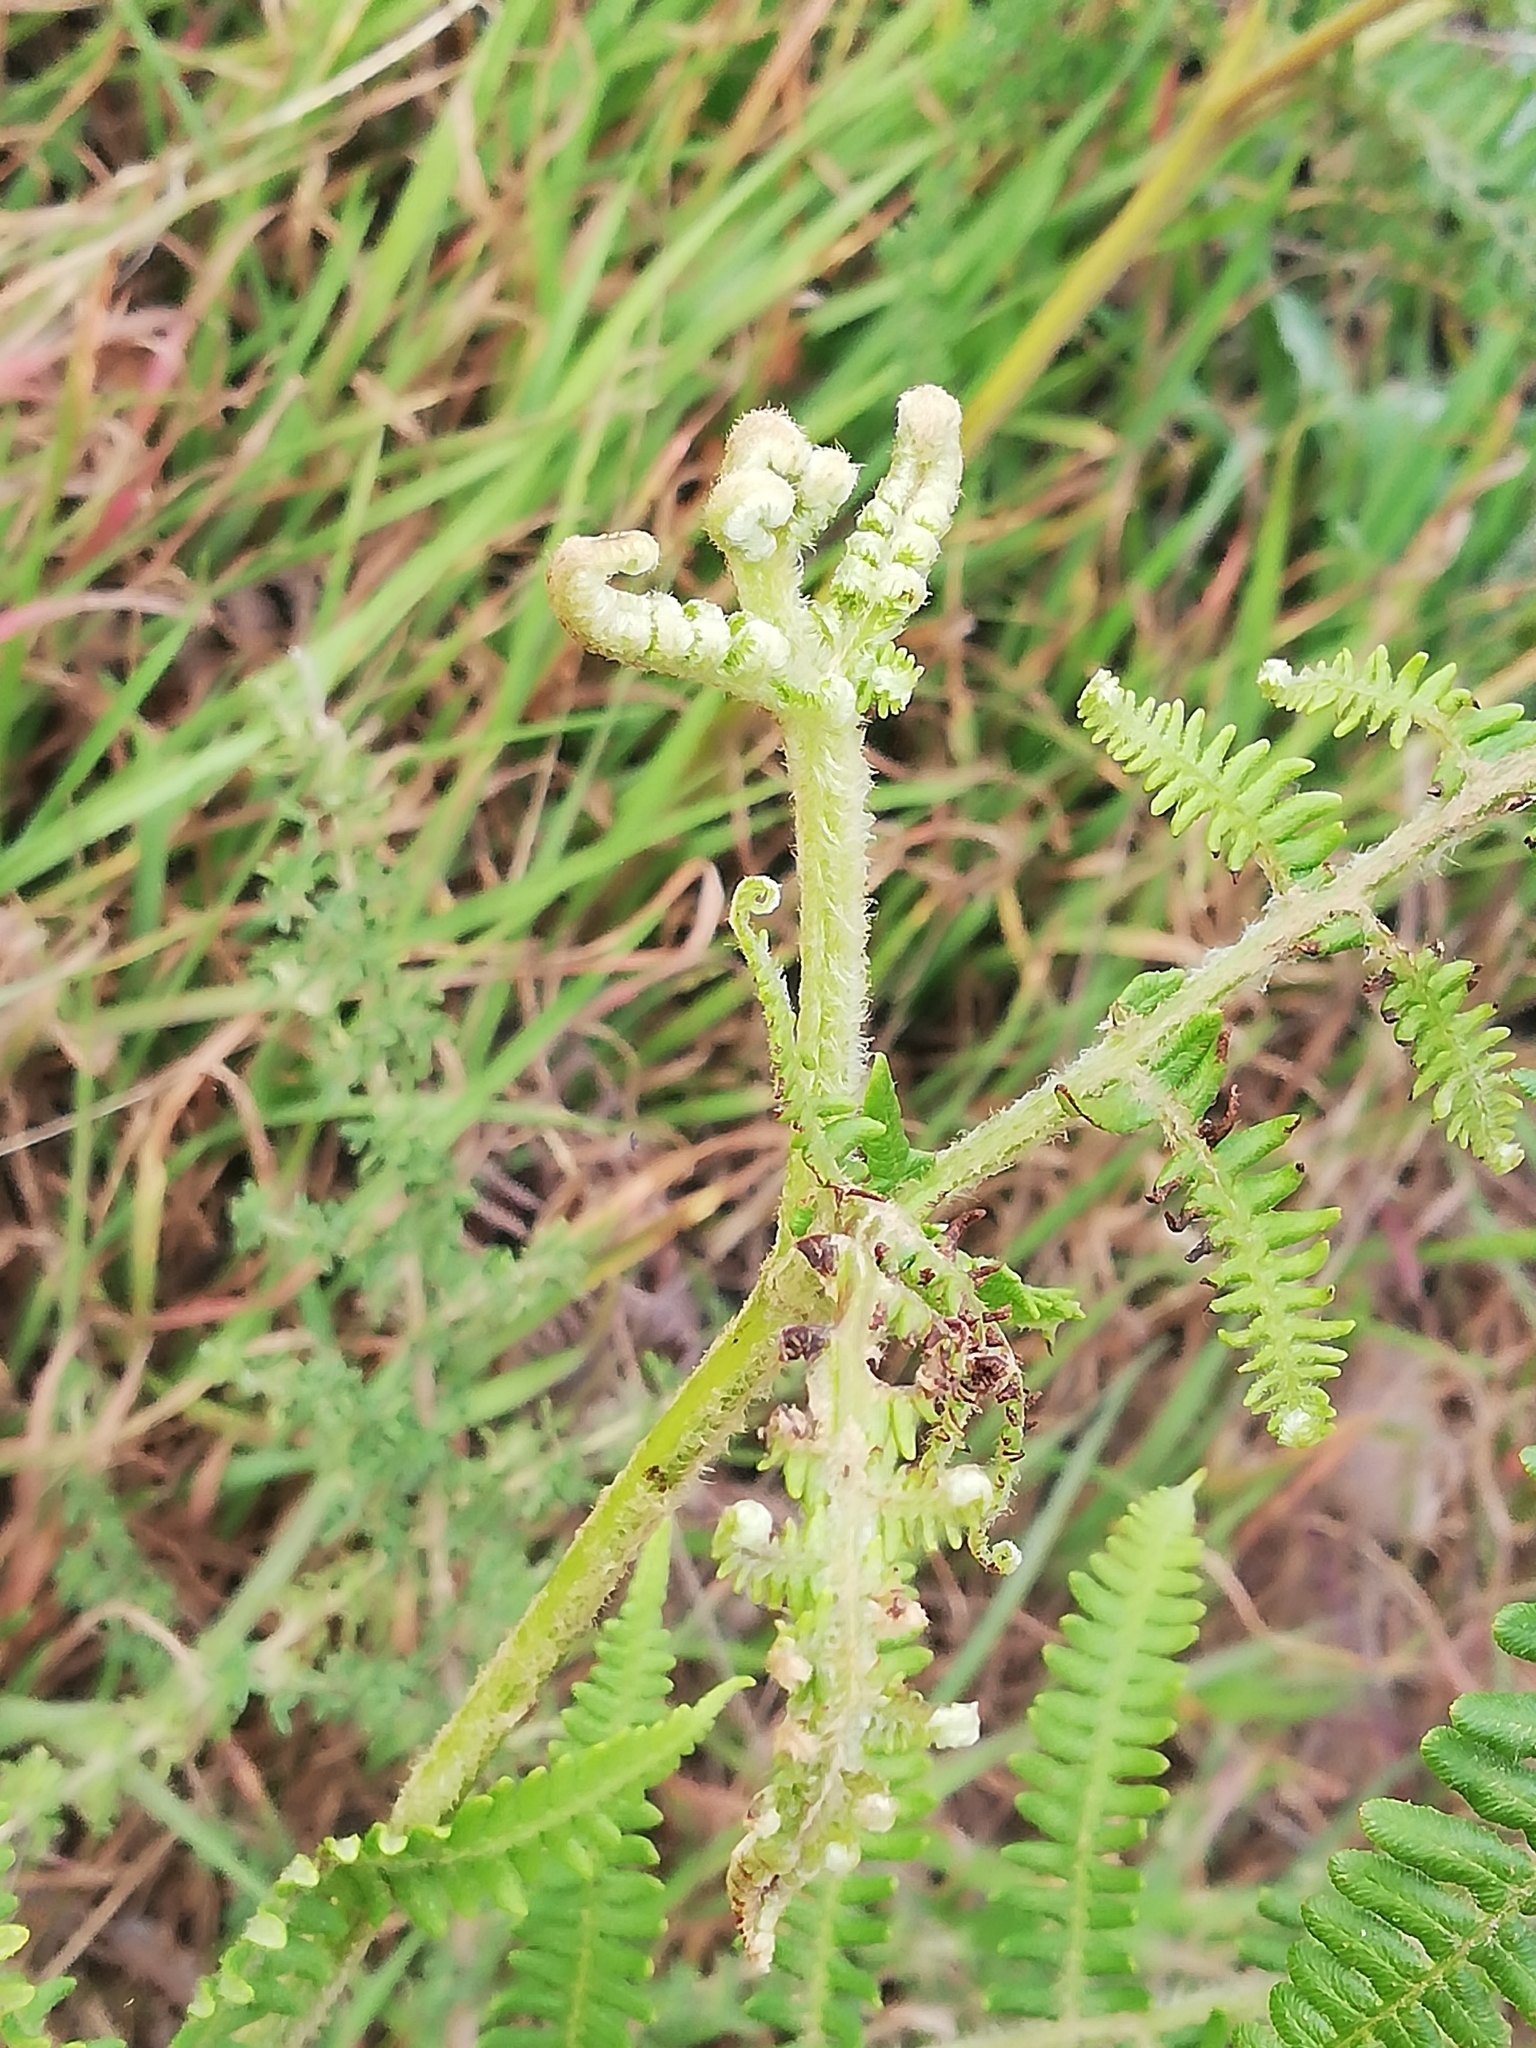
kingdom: Plantae
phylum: Tracheophyta
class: Polypodiopsida
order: Polypodiales
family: Dennstaedtiaceae
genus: Pteridium
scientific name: Pteridium aquilinum
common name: Bracken
